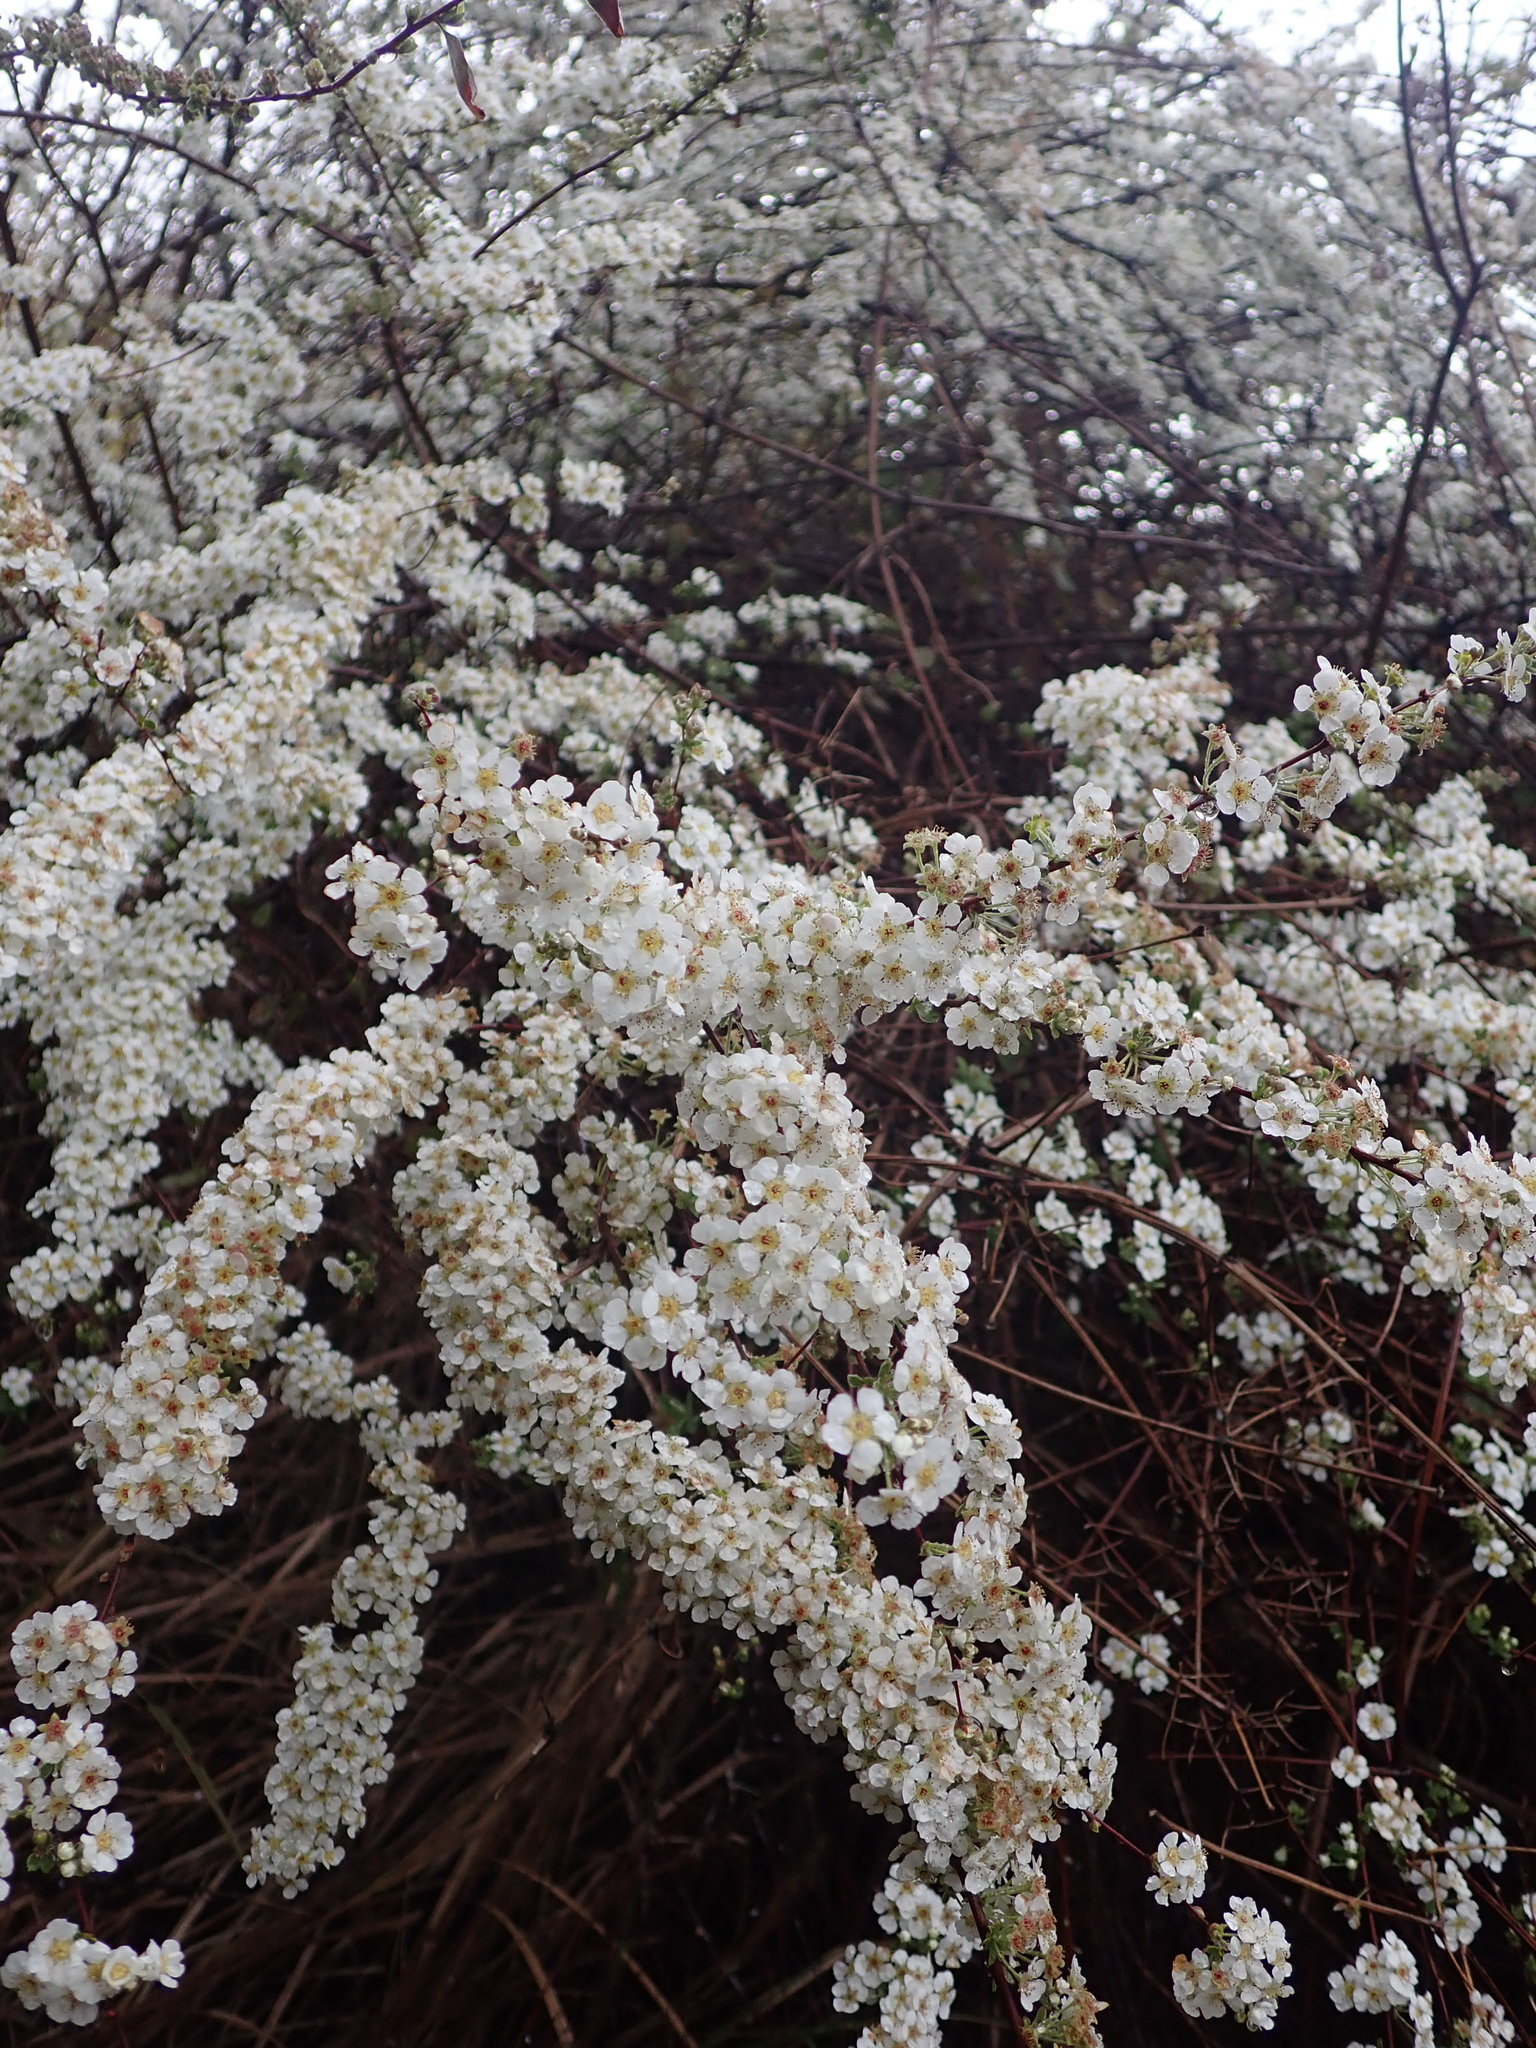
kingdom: Plantae
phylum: Tracheophyta
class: Magnoliopsida
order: Rosales
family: Rosaceae
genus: Spiraea
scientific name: Spiraea prunifolia
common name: Bridal-wreath spiraea
